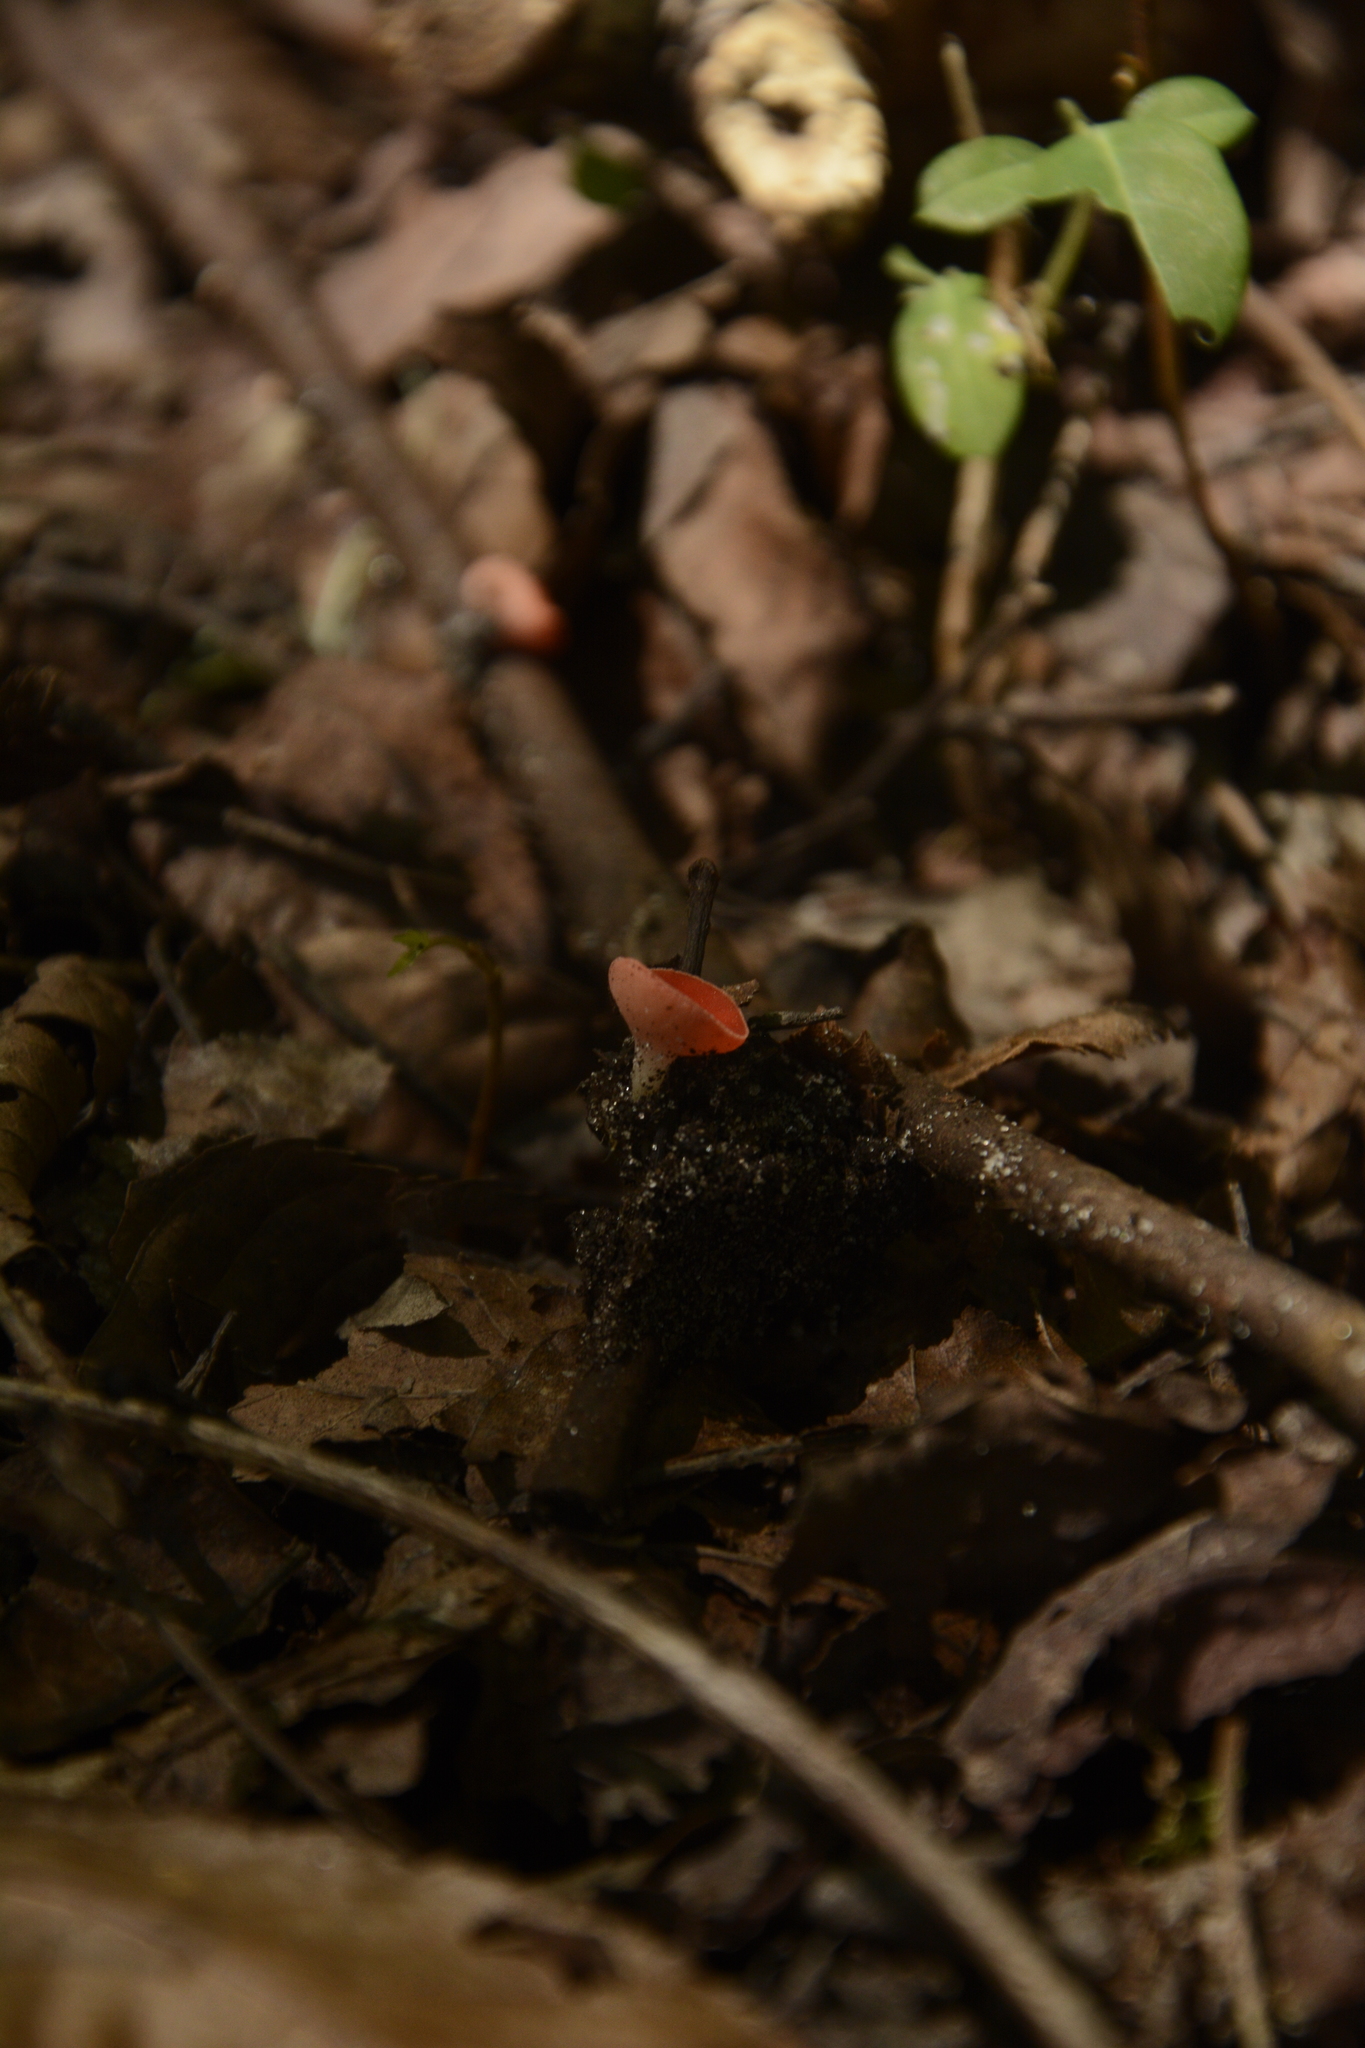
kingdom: Fungi
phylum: Ascomycota
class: Pezizomycetes
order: Pezizales
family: Sarcoscyphaceae
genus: Sarcoscypha
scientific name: Sarcoscypha occidentalis
